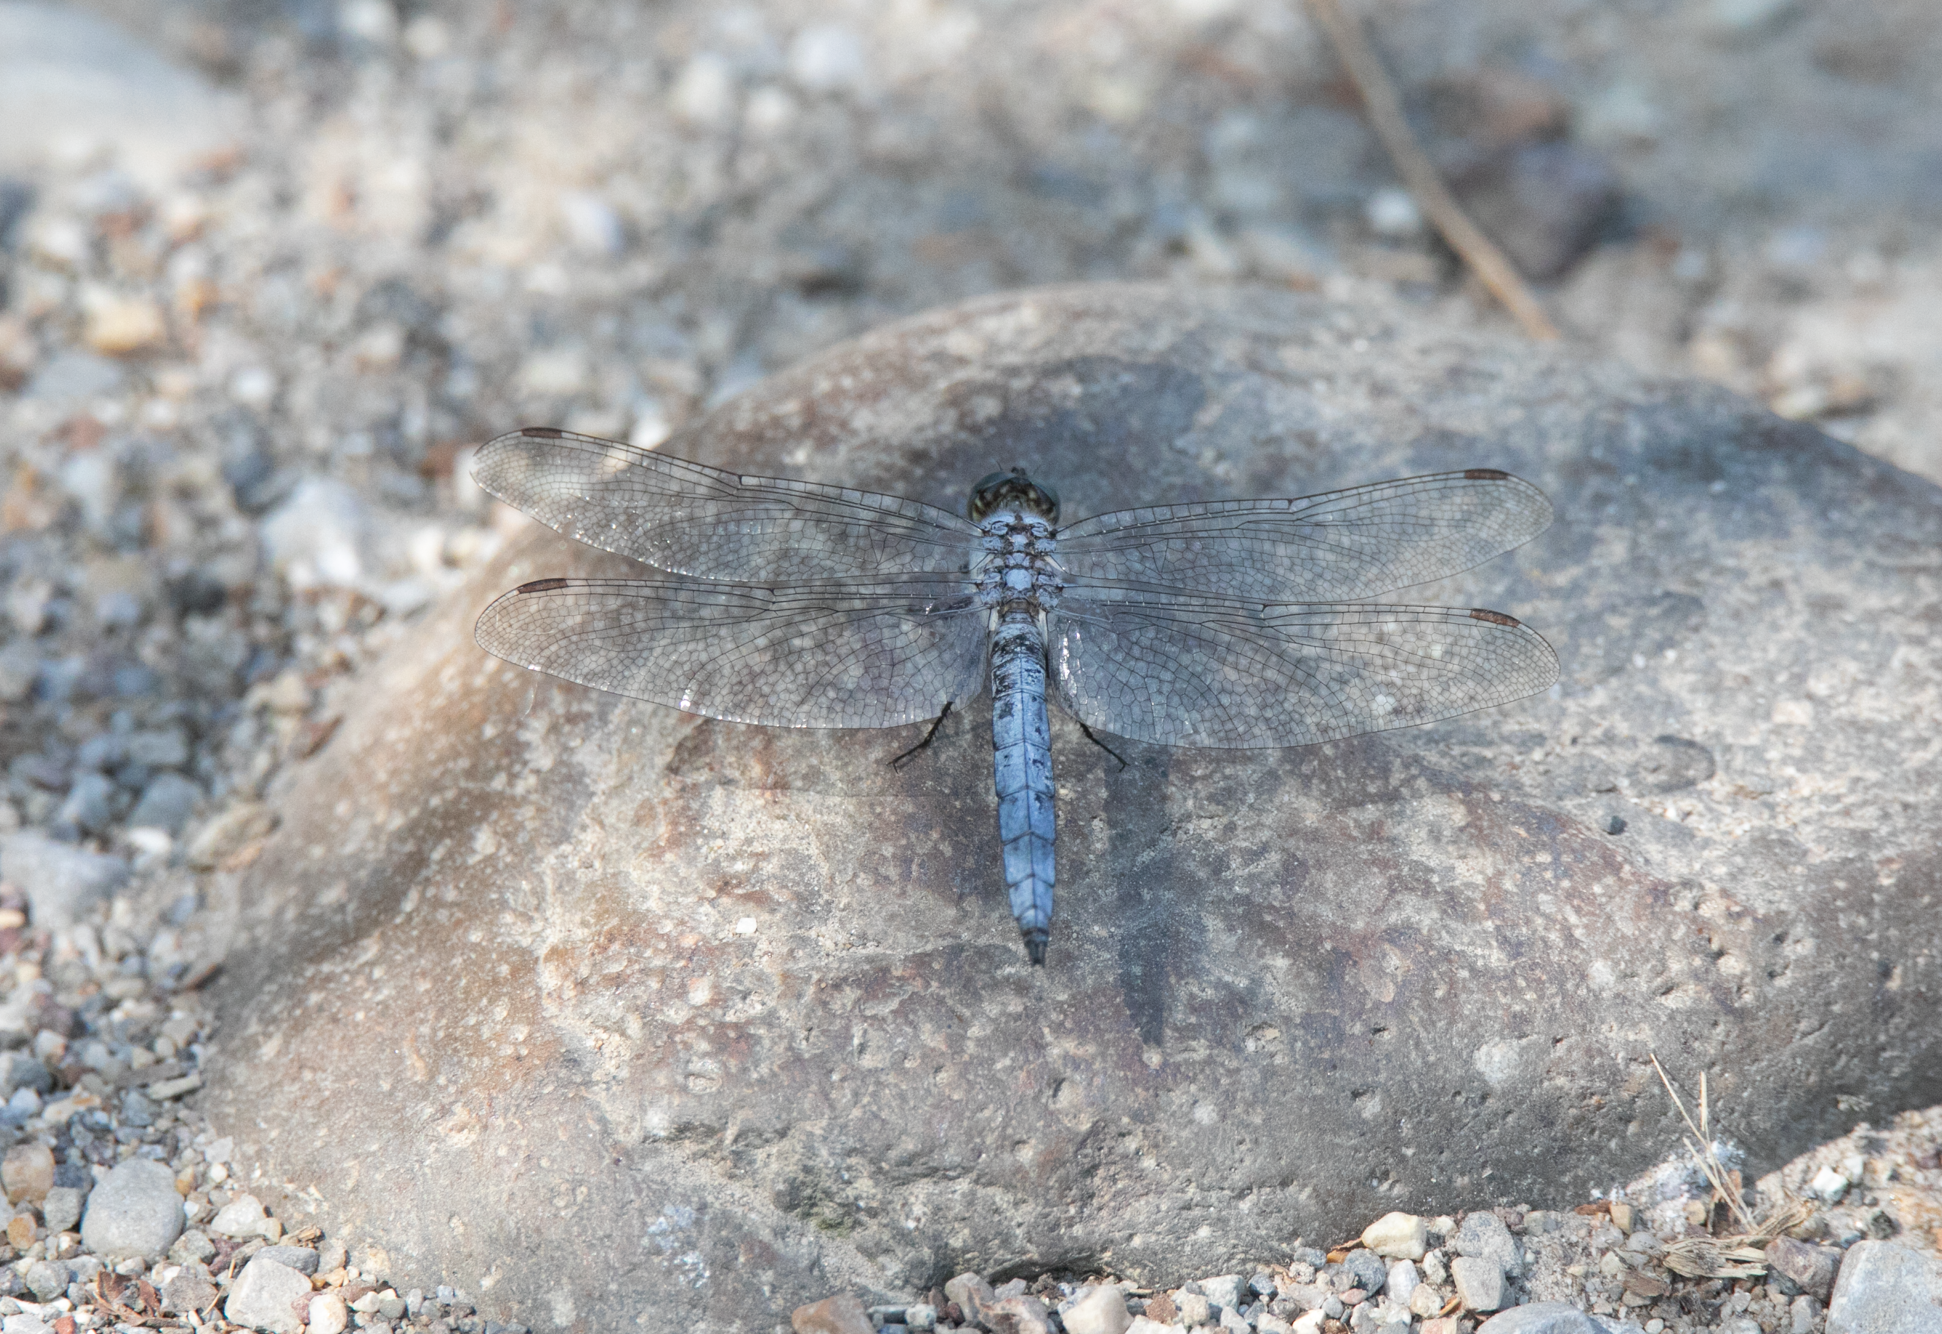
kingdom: Animalia
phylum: Arthropoda
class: Insecta
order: Odonata
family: Libellulidae
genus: Orthetrum
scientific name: Orthetrum brunneum
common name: Southern skimmer
